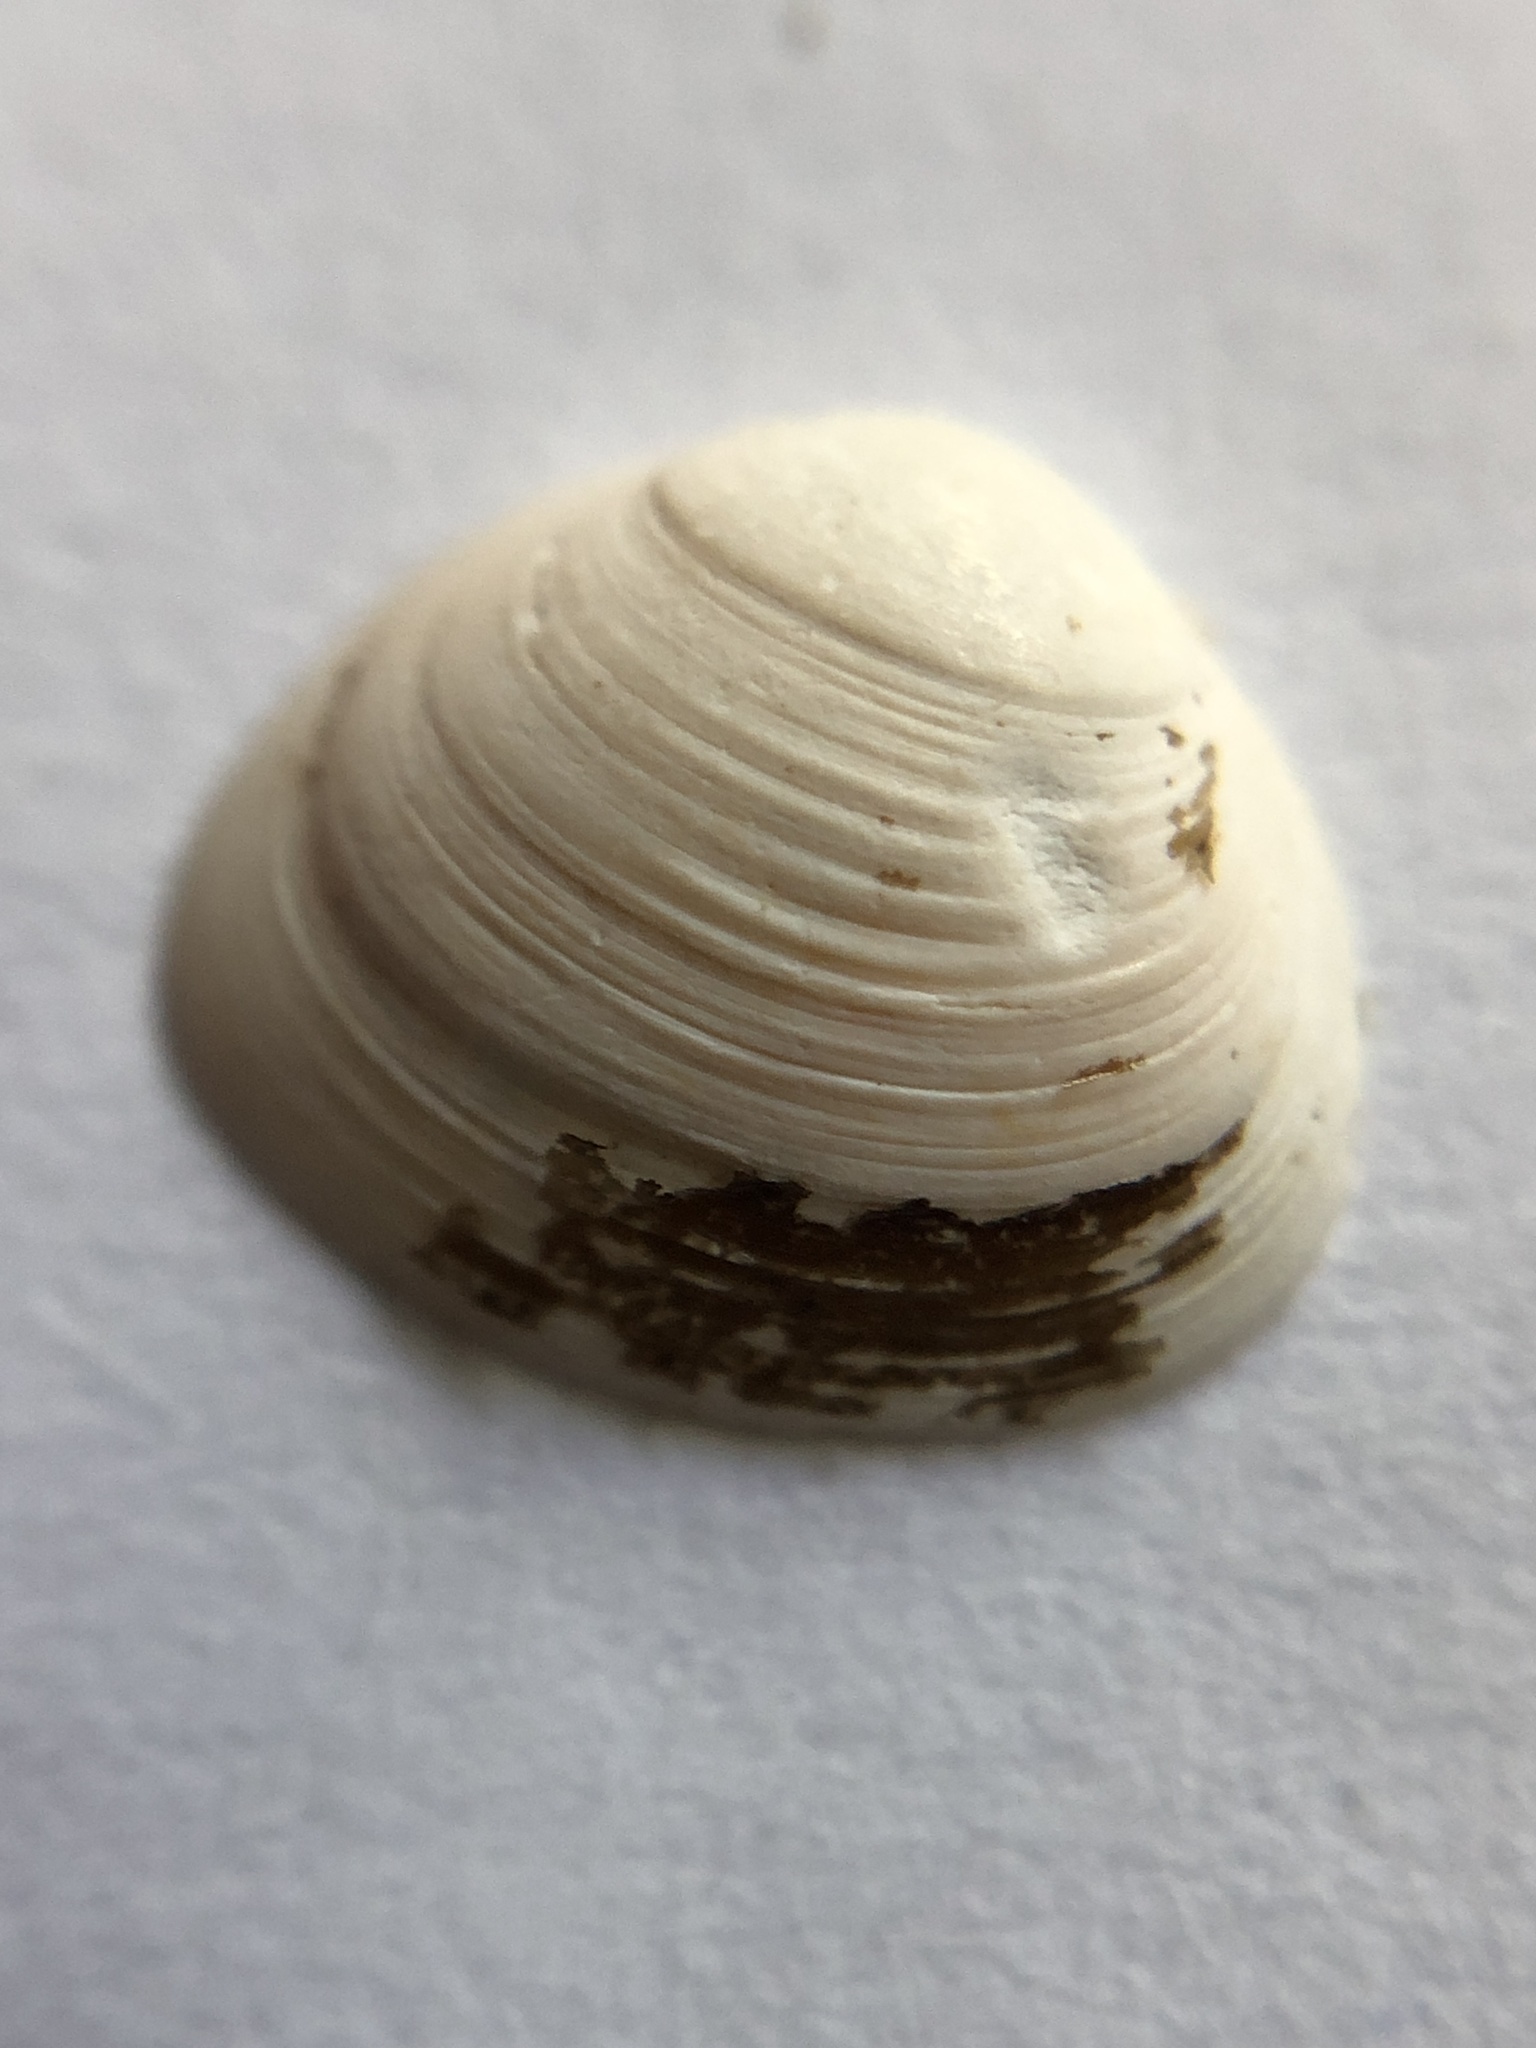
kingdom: Animalia
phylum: Mollusca
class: Bivalvia
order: Sphaeriida
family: Sphaeriidae
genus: Sphaerium
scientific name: Sphaerium striatinum
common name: Striated fingernailclam
